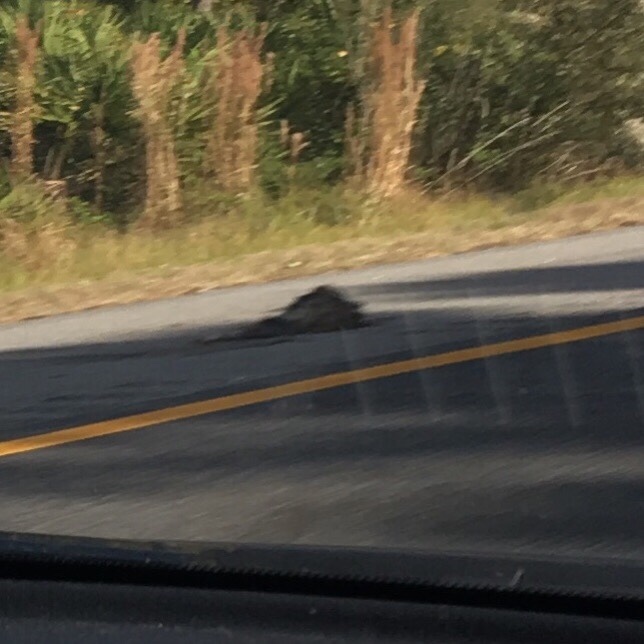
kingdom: Animalia
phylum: Chordata
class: Mammalia
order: Didelphimorphia
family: Didelphidae
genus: Didelphis
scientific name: Didelphis virginiana
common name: Virginia opossum
